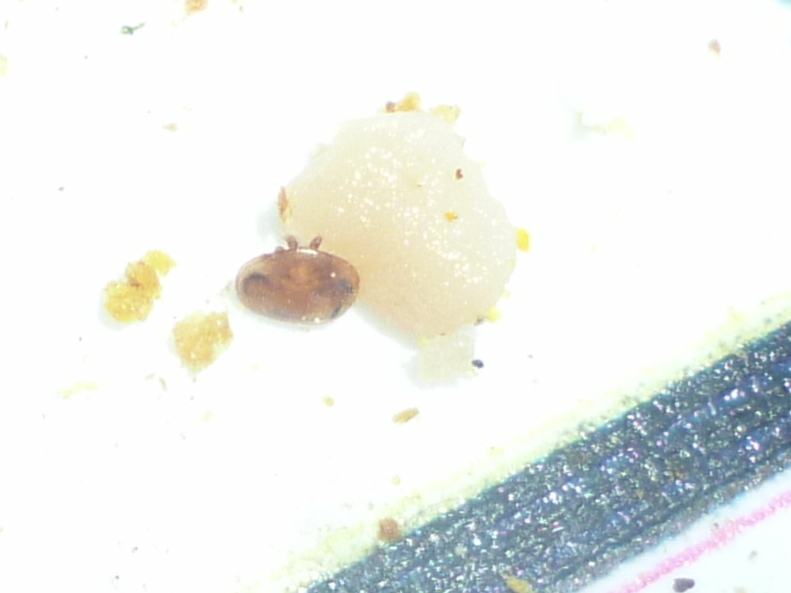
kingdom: Animalia
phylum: Arthropoda
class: Arachnida
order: Mesostigmata
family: Varroidae
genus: Varroa
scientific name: Varroa destructor
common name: Honey bee mite
